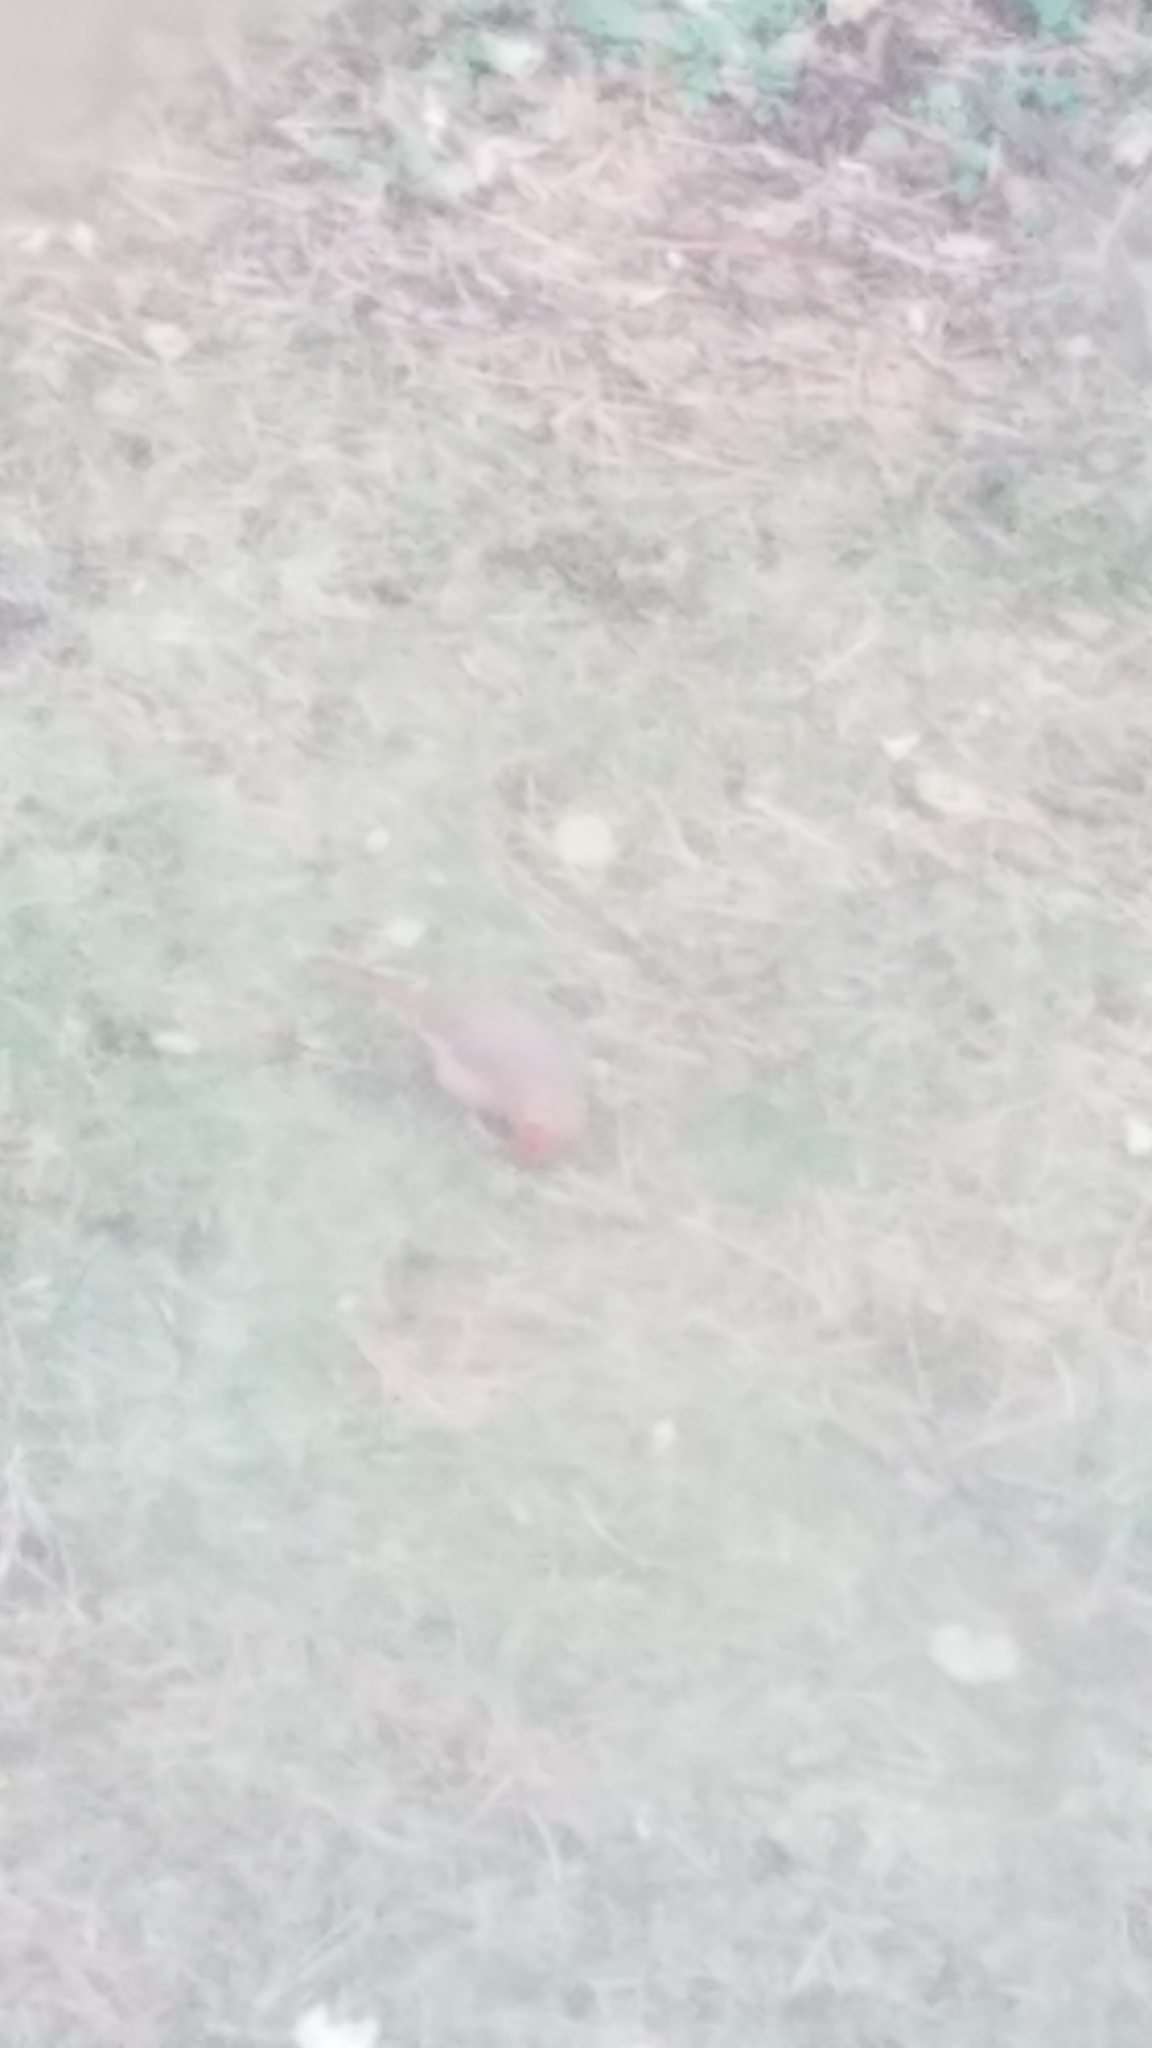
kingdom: Animalia
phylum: Chordata
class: Aves
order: Passeriformes
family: Cardinalidae
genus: Cardinalis
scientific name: Cardinalis cardinalis
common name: Northern cardinal
